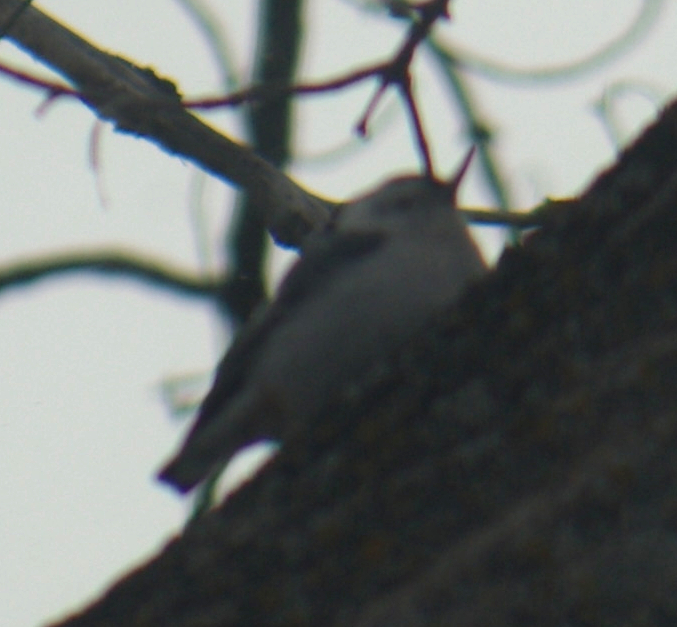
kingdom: Animalia
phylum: Chordata
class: Aves
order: Passeriformes
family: Sittidae
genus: Sitta
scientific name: Sitta carolinensis
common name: White-breasted nuthatch
